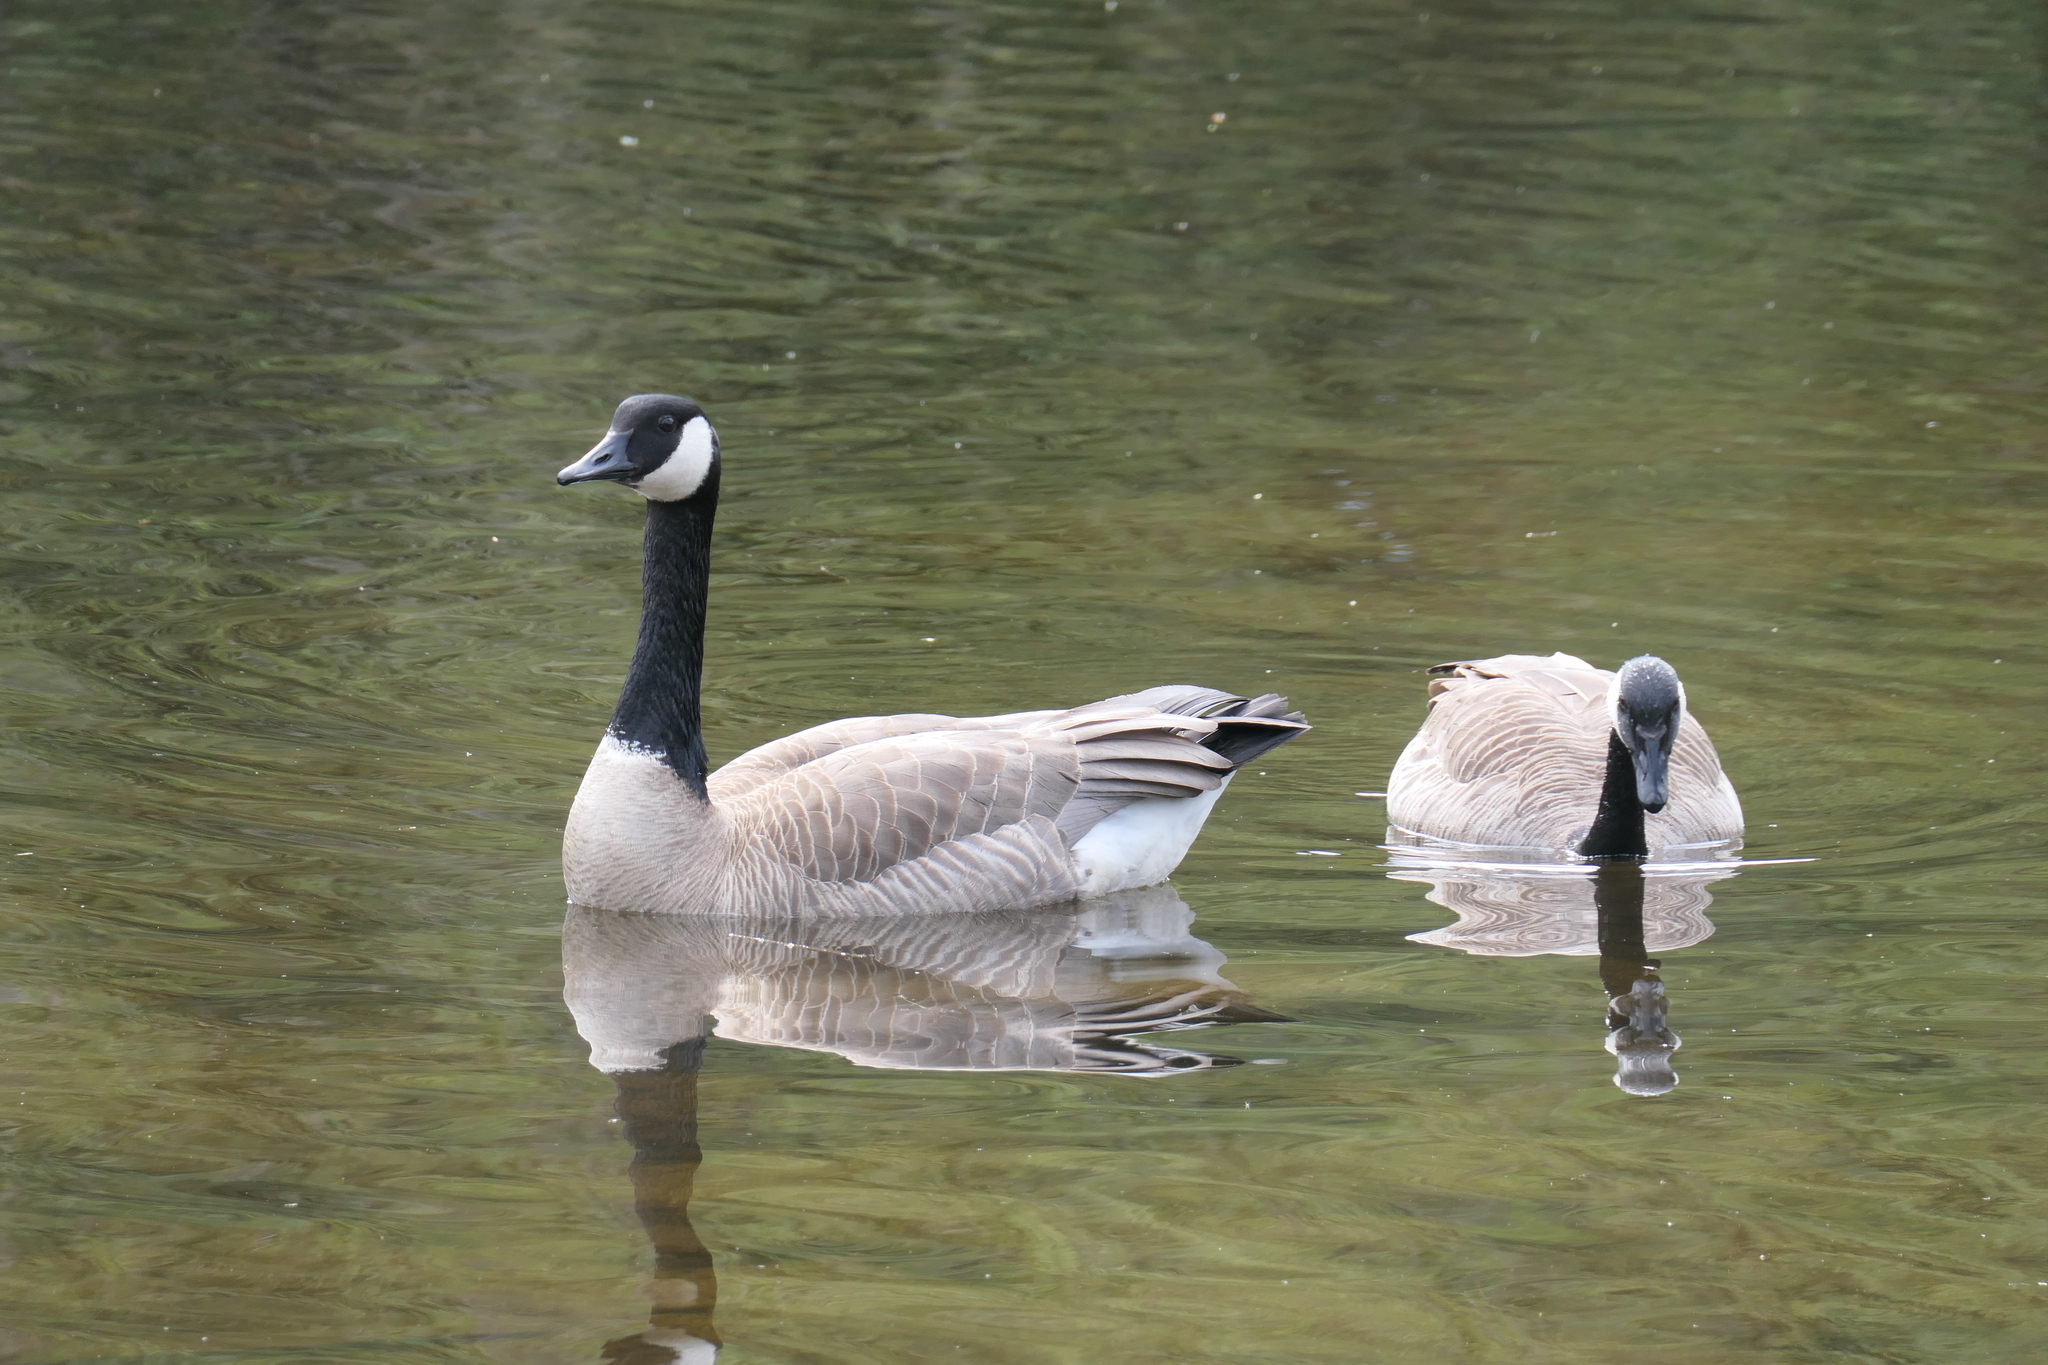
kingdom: Animalia
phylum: Chordata
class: Aves
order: Anseriformes
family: Anatidae
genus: Branta
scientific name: Branta canadensis
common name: Canada goose
